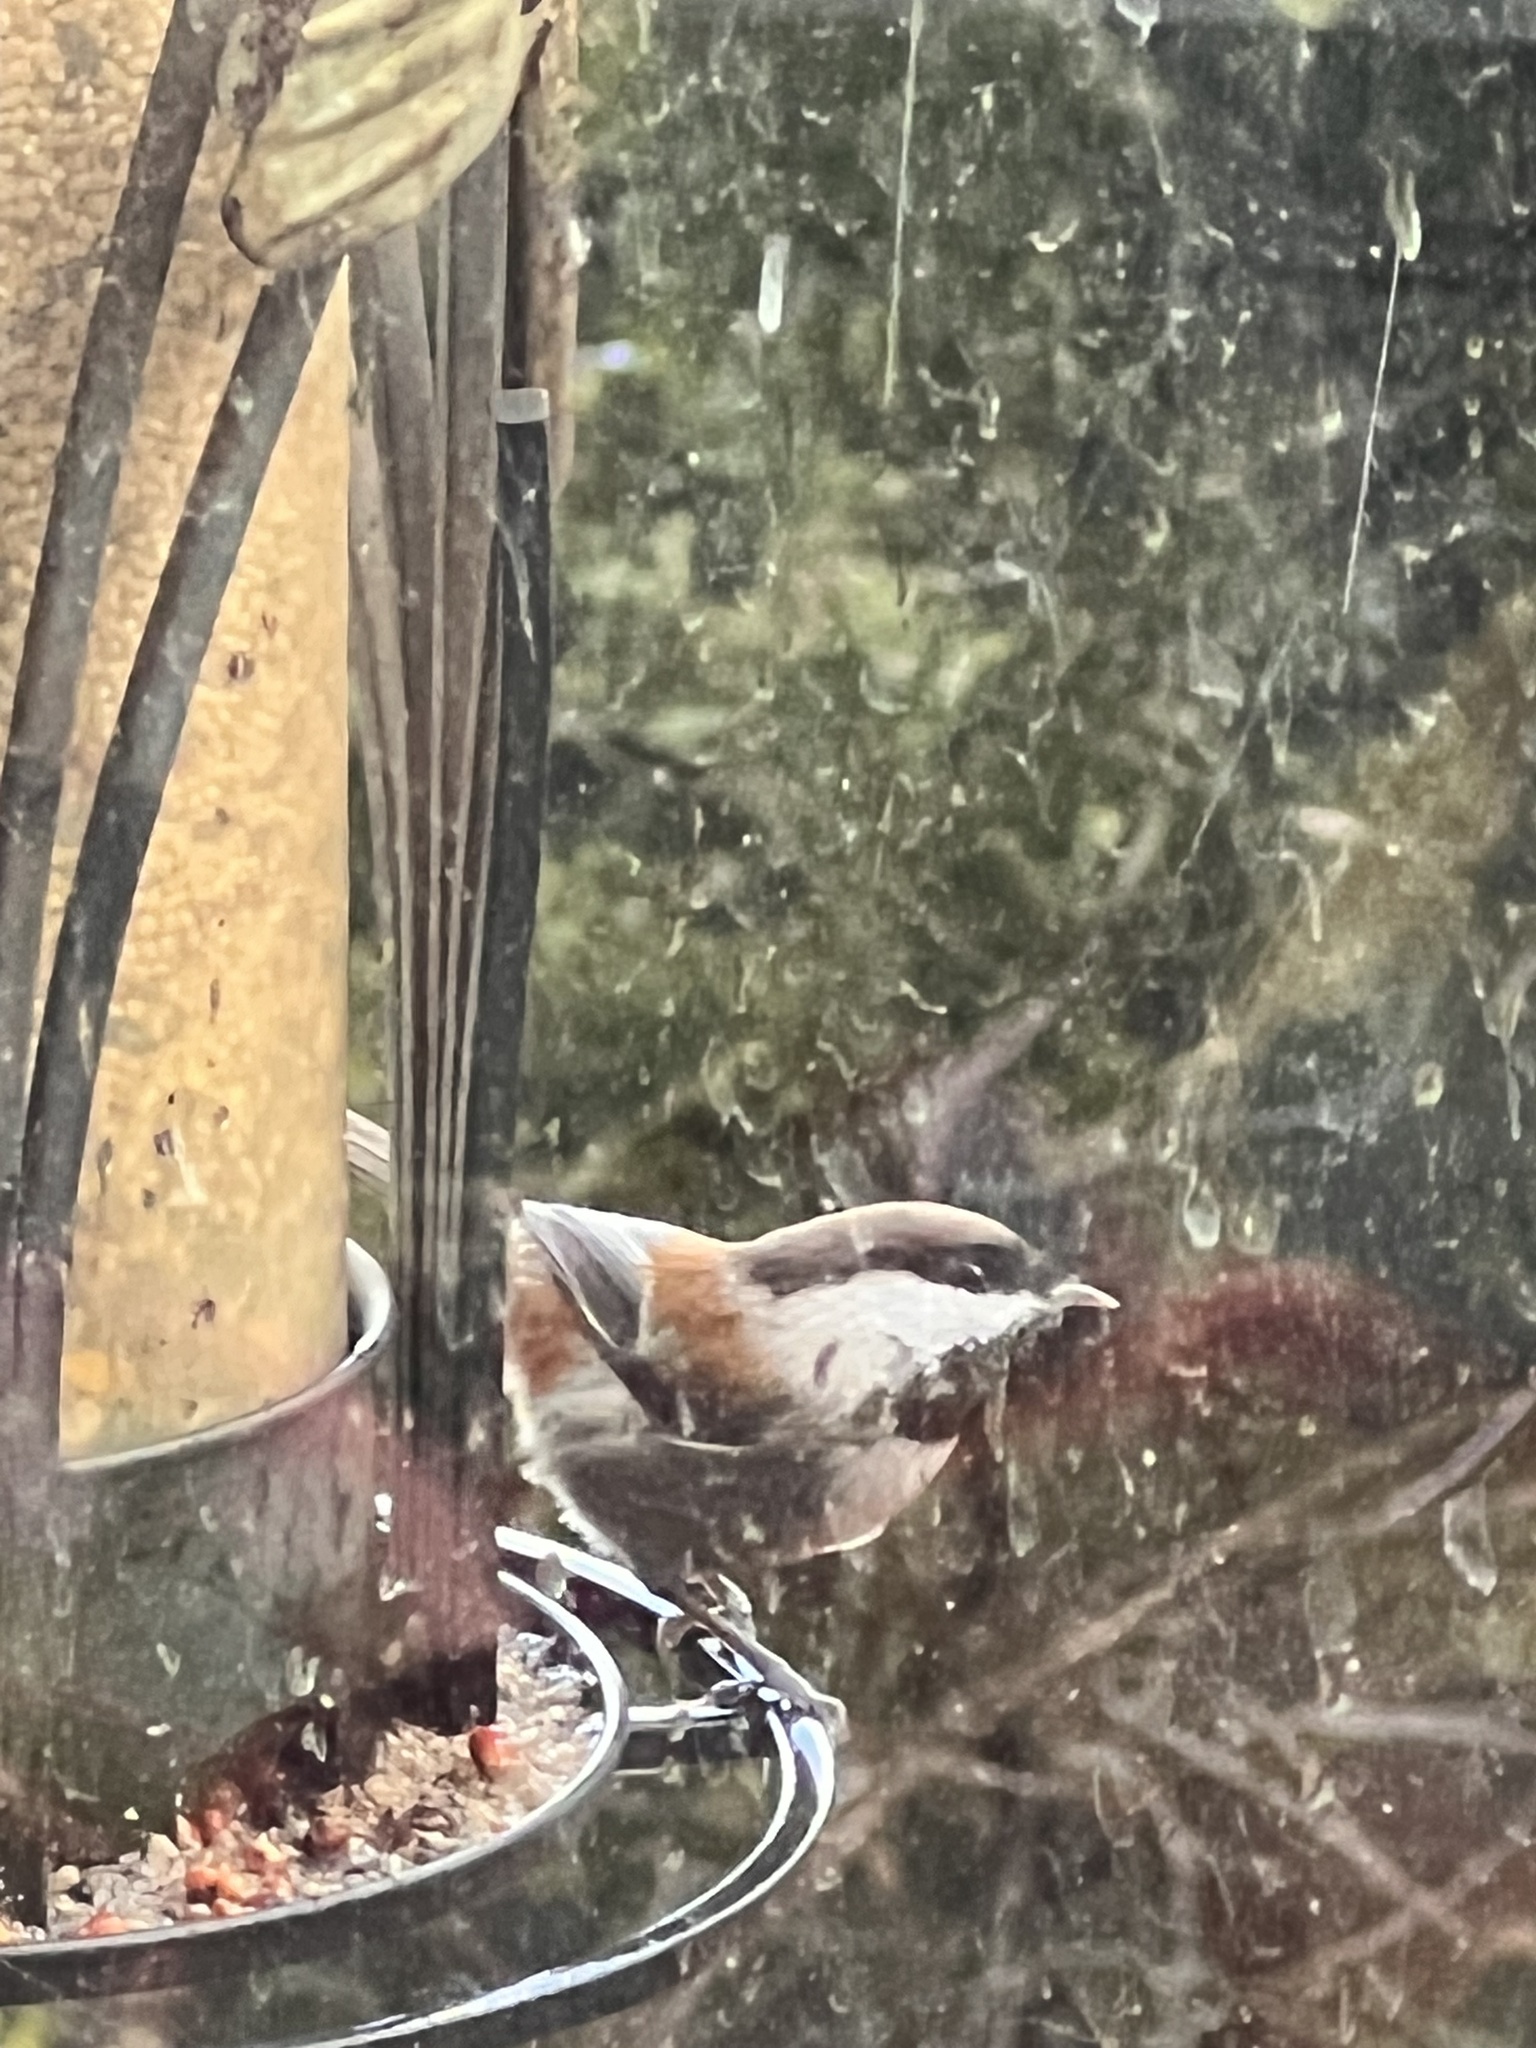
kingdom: Animalia
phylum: Chordata
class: Aves
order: Passeriformes
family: Paridae
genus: Poecile
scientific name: Poecile rufescens
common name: Chestnut-backed chickadee
